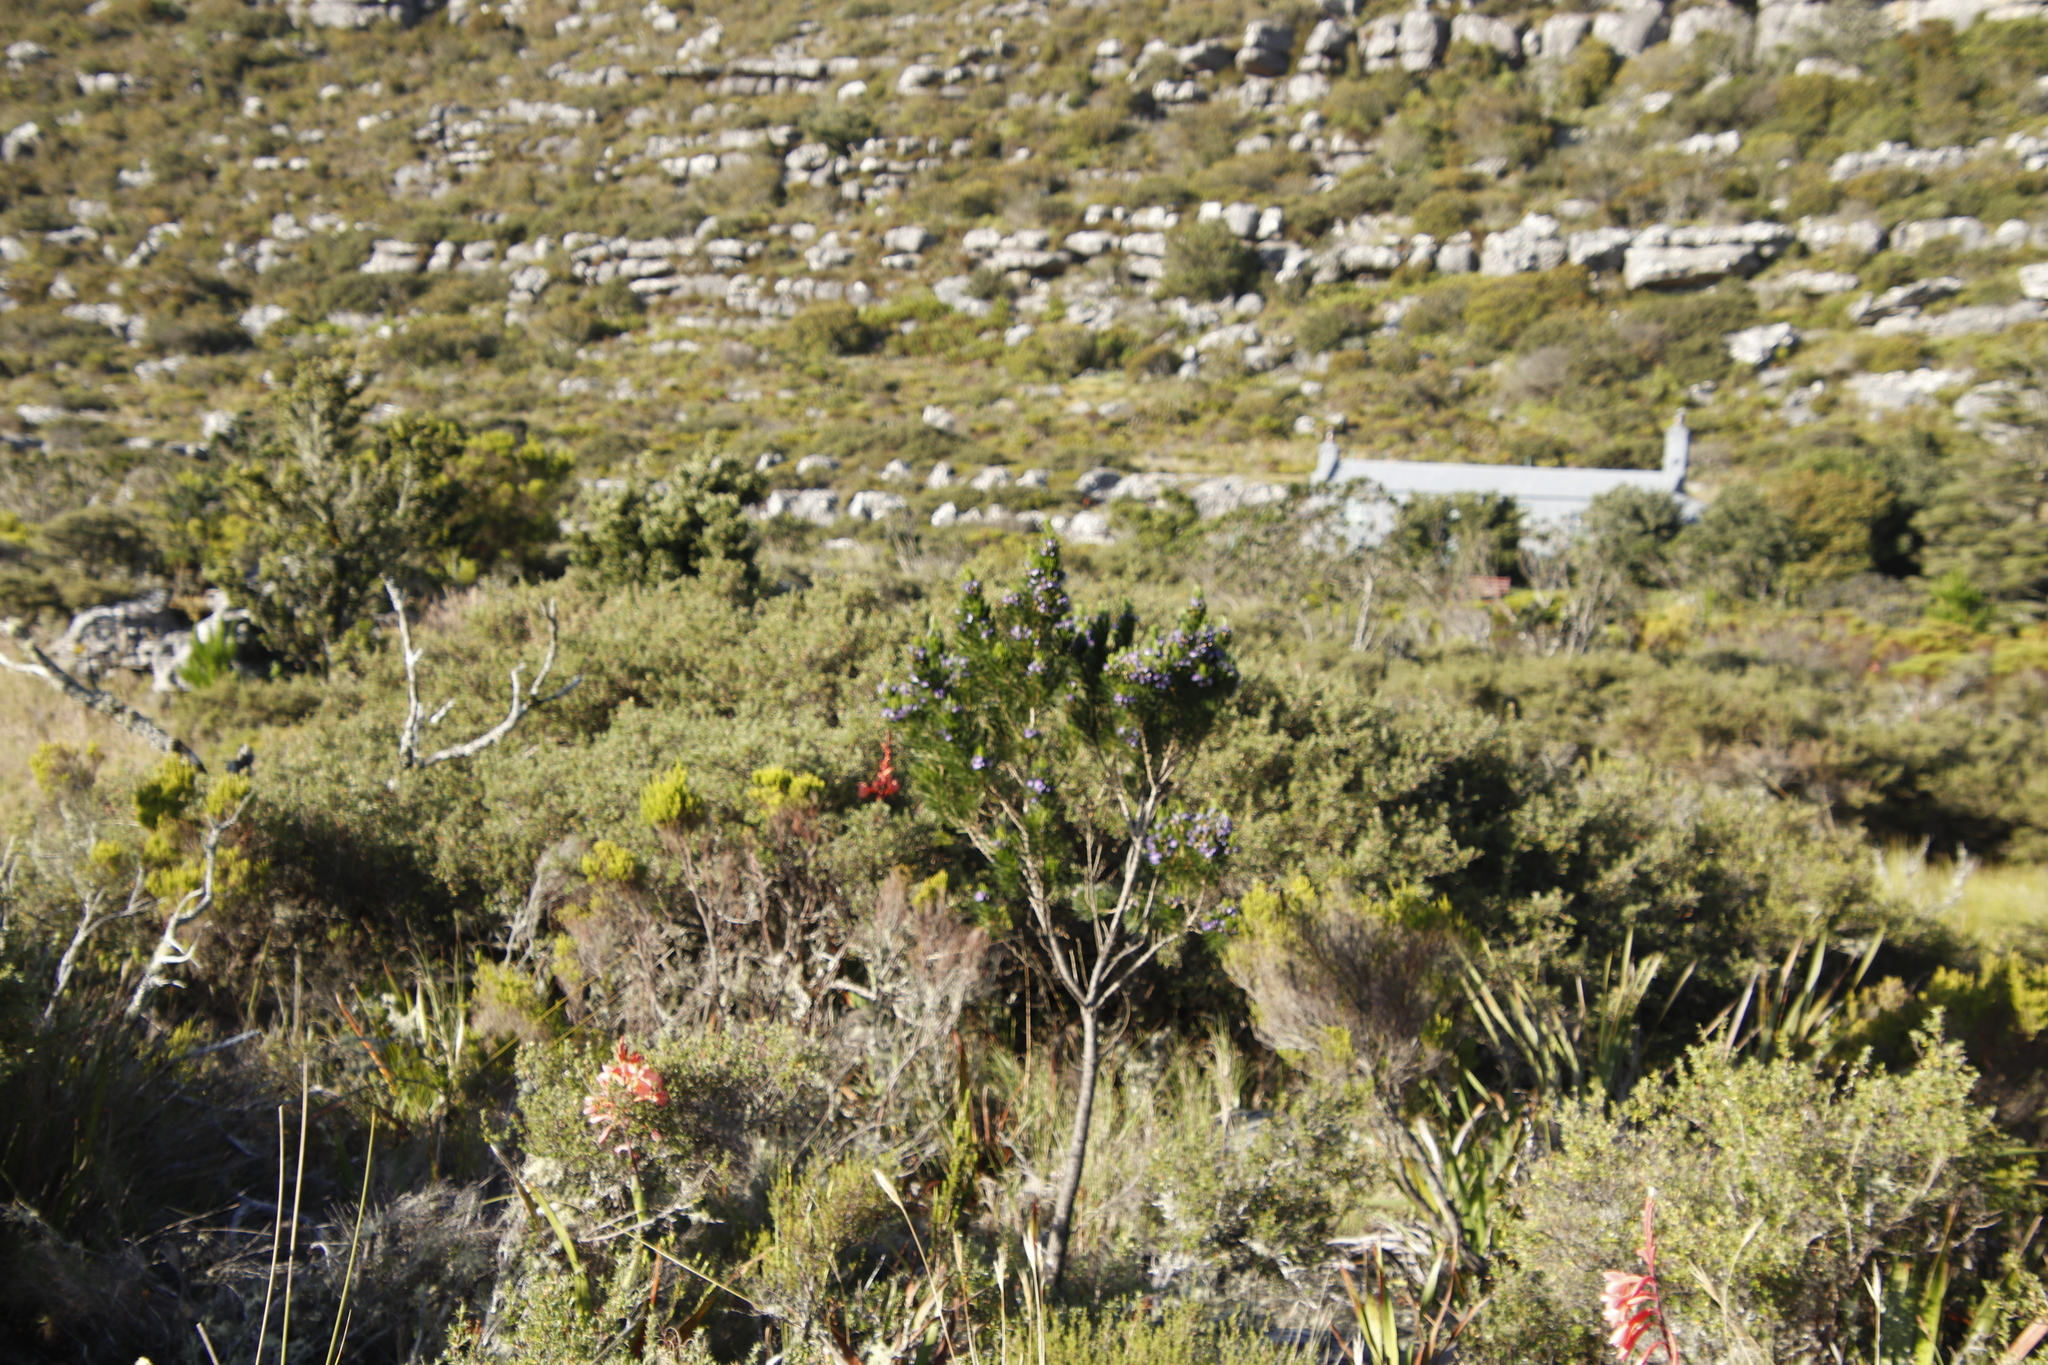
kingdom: Plantae
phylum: Tracheophyta
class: Magnoliopsida
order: Fabales
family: Fabaceae
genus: Psoralea
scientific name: Psoralea pinnata
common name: African scurfpea
